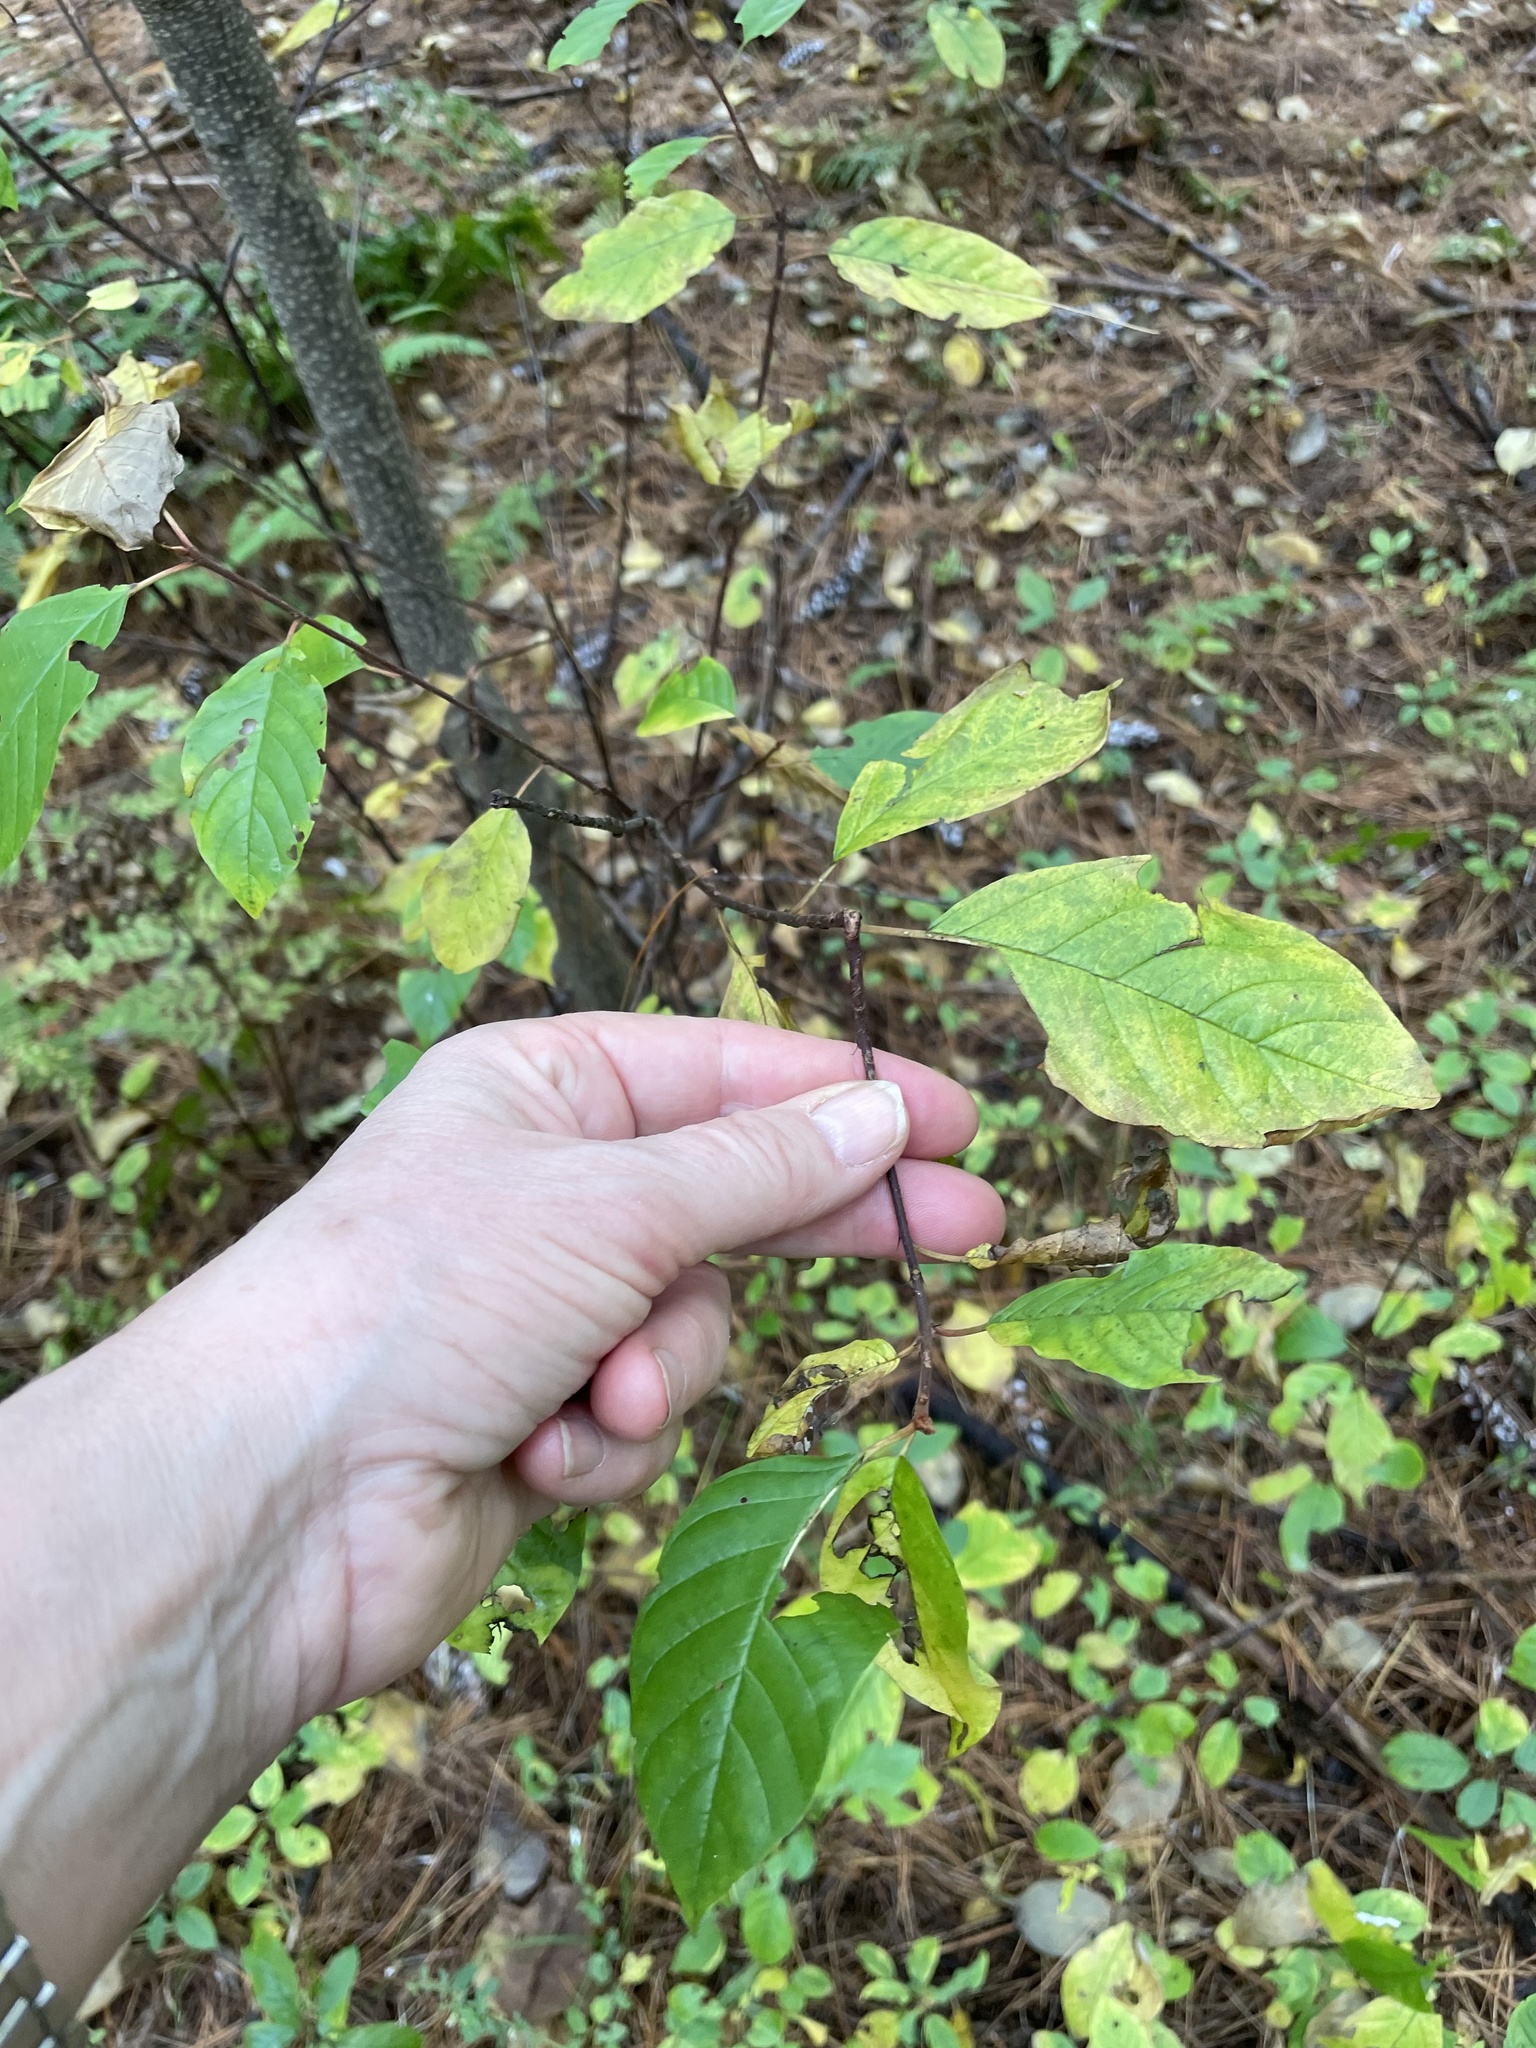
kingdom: Plantae
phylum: Tracheophyta
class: Magnoliopsida
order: Rosales
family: Rhamnaceae
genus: Frangula
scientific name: Frangula alnus
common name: Alder buckthorn
